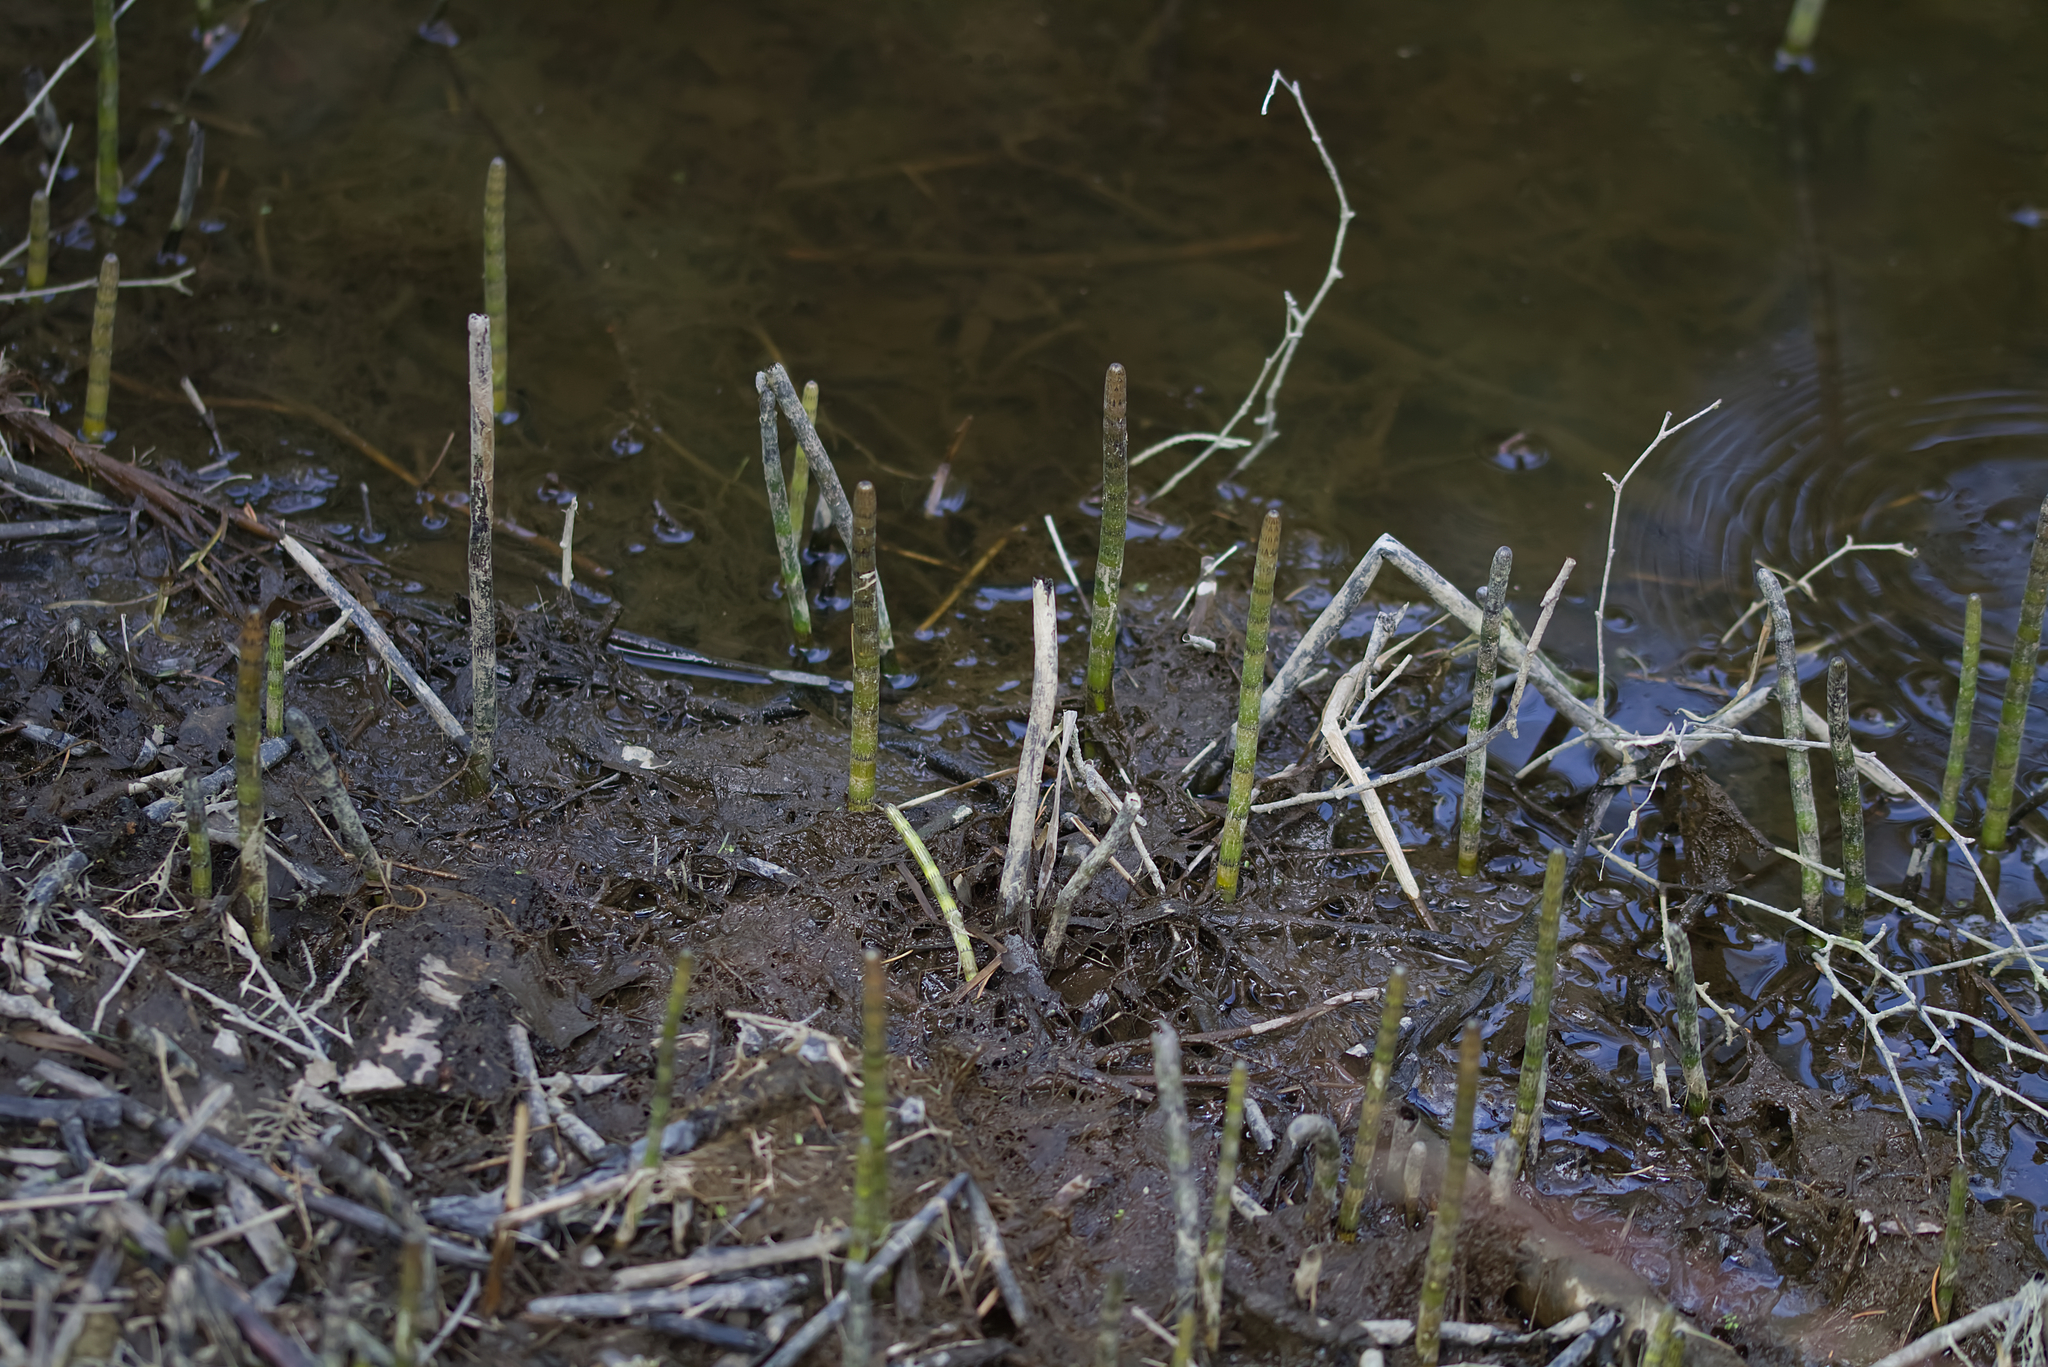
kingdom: Plantae
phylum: Tracheophyta
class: Polypodiopsida
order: Equisetales
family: Equisetaceae
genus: Equisetum
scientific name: Equisetum fluviatile
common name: Water horsetail
